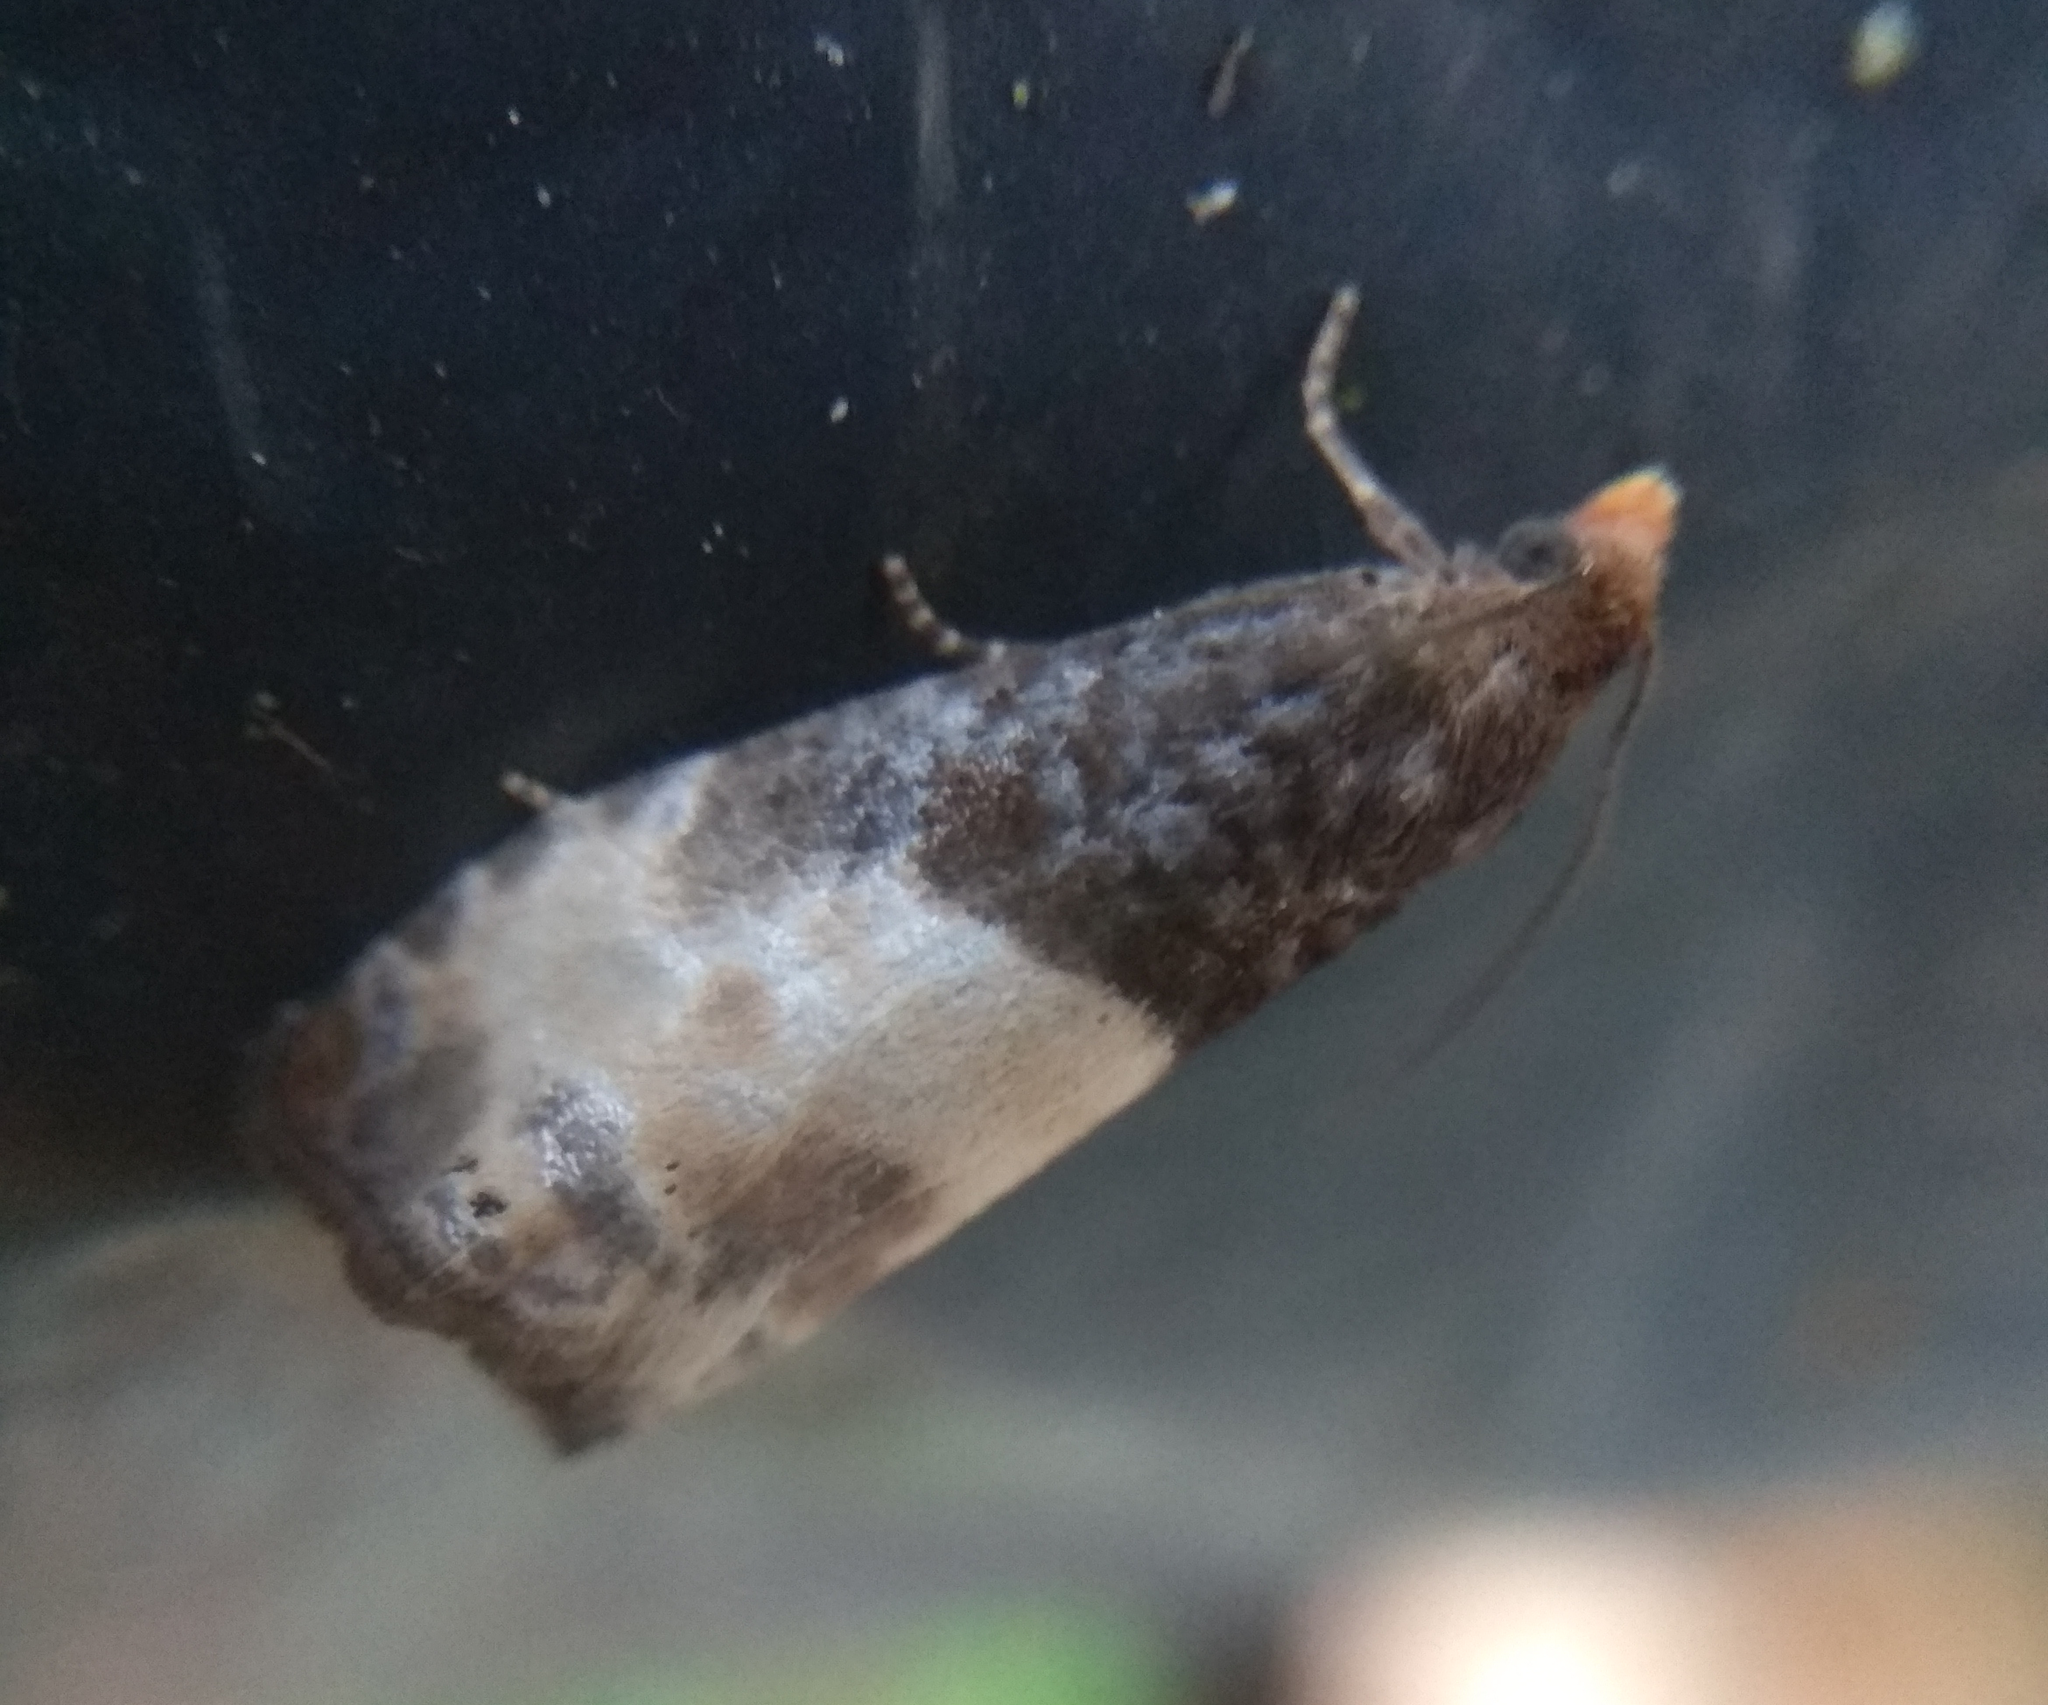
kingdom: Animalia
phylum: Arthropoda
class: Insecta
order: Lepidoptera
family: Tortricidae
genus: Notocelia
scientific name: Notocelia cynosbatella
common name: Yellow-faced bell moth
